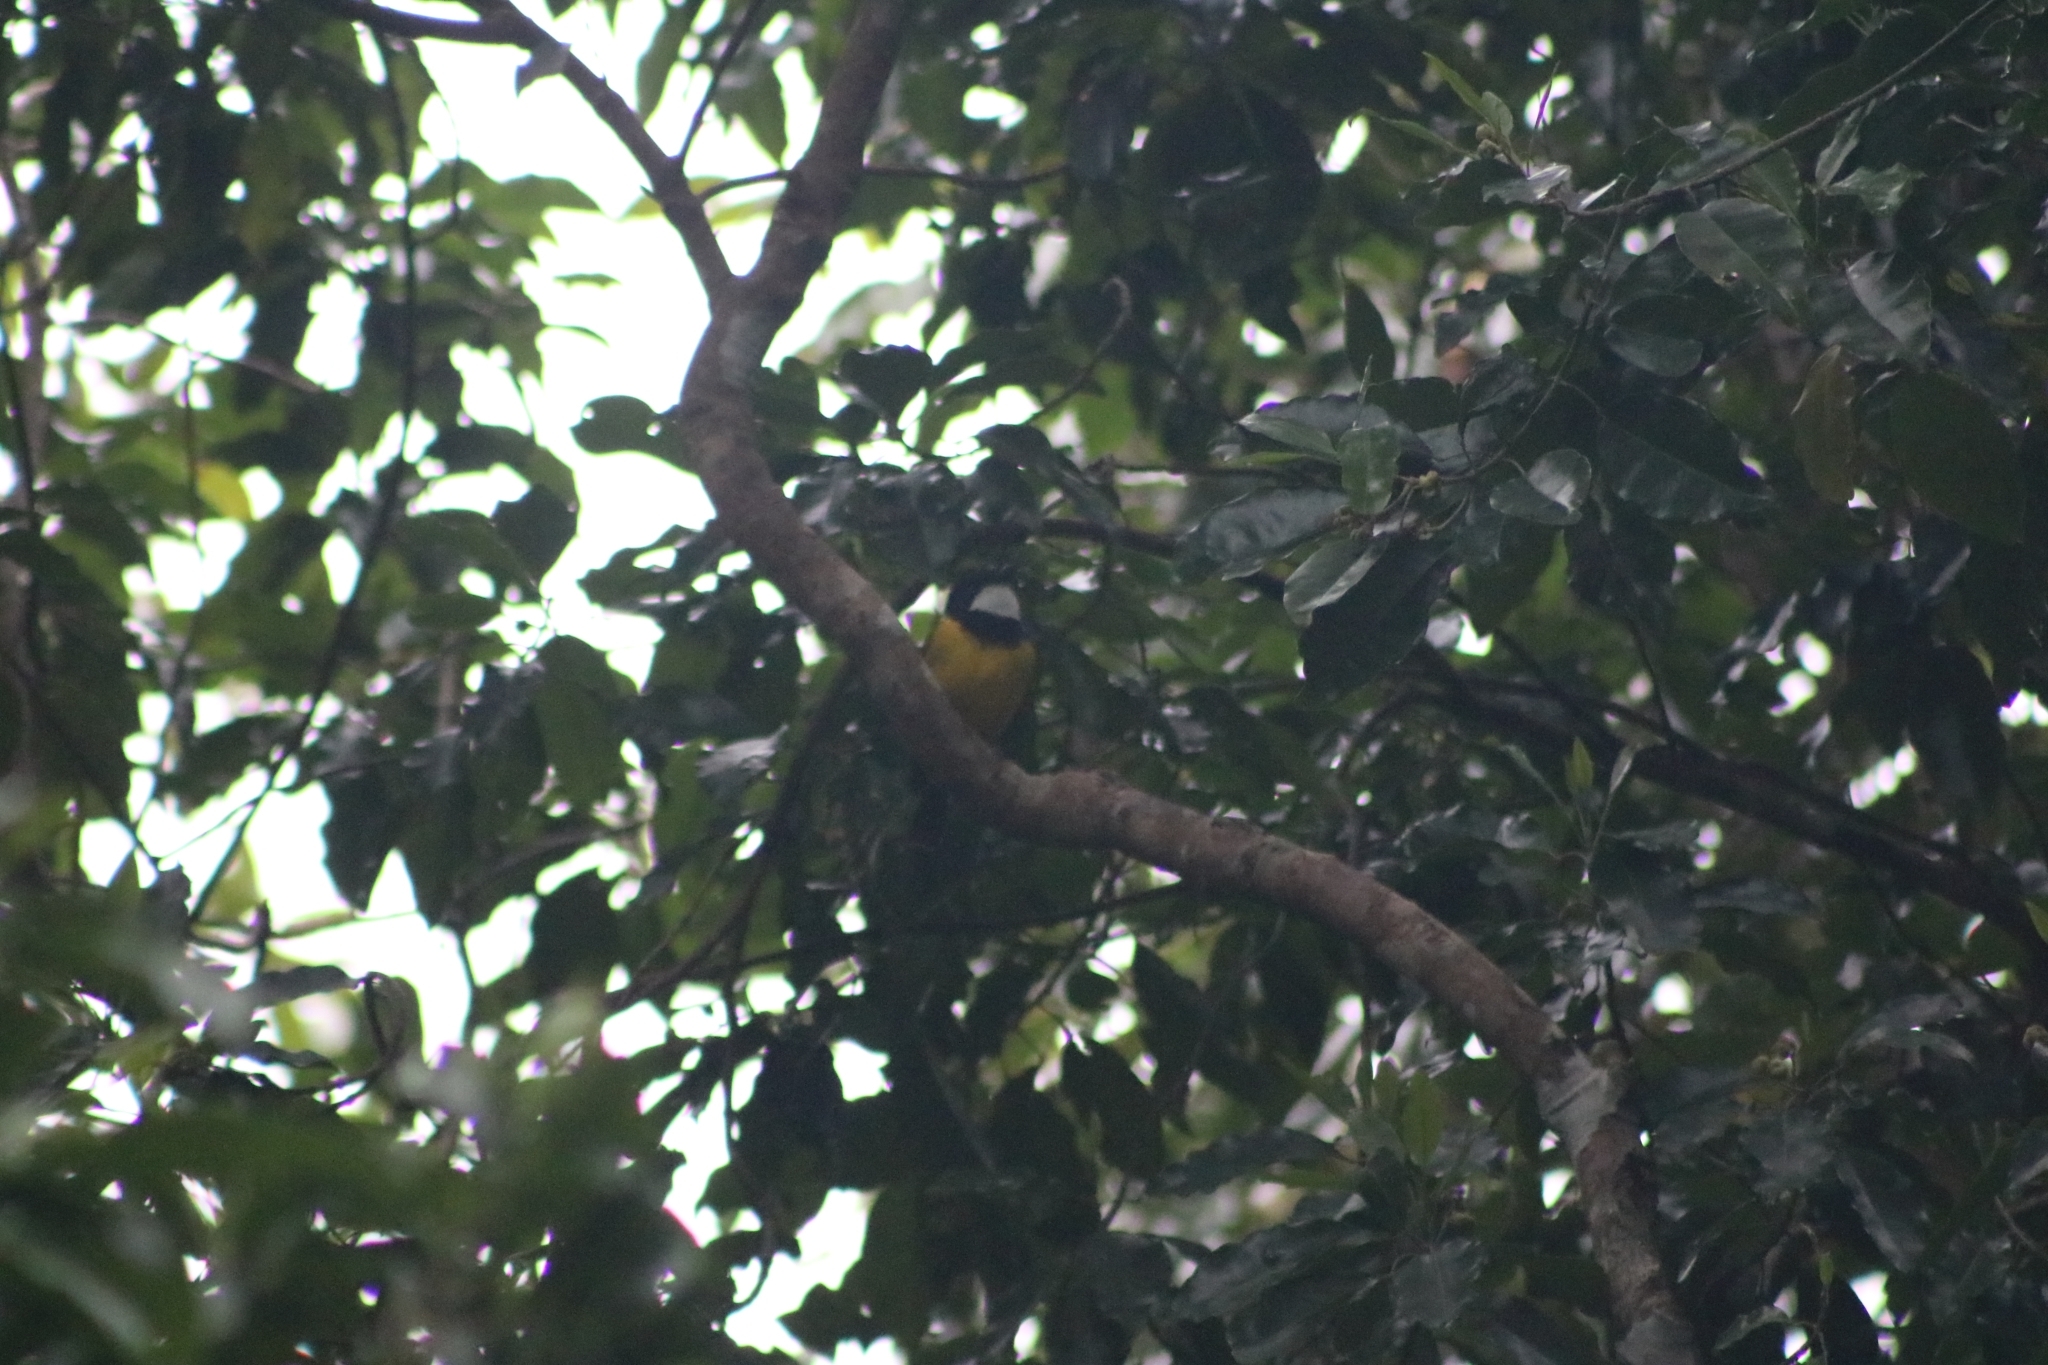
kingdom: Animalia
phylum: Chordata
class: Aves
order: Passeriformes
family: Pachycephalidae
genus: Pachycephala
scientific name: Pachycephala pectoralis
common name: Australian golden whistler
